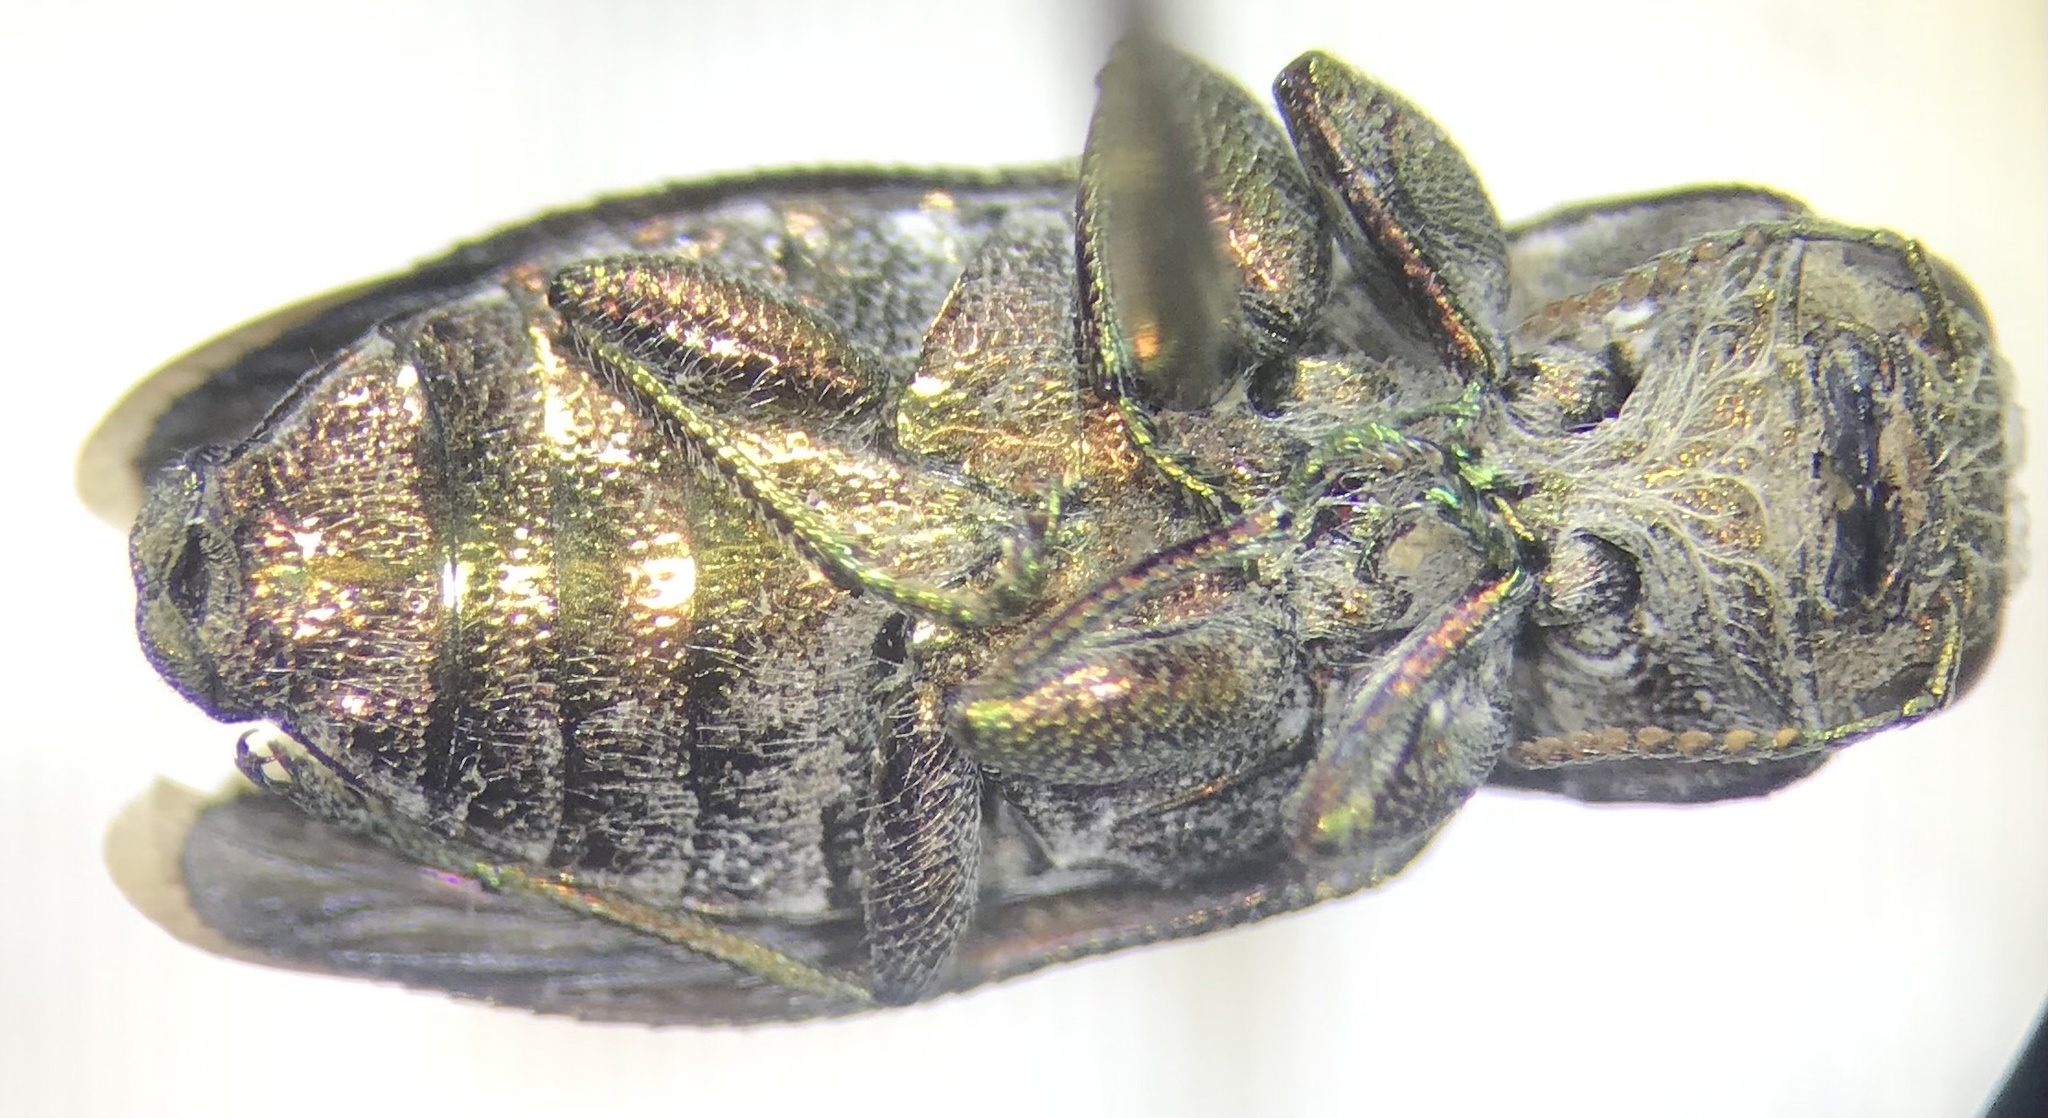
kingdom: Animalia
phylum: Arthropoda
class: Insecta
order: Coleoptera
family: Buprestidae
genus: Chrysobothris
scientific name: Chrysobothris viridiceps
